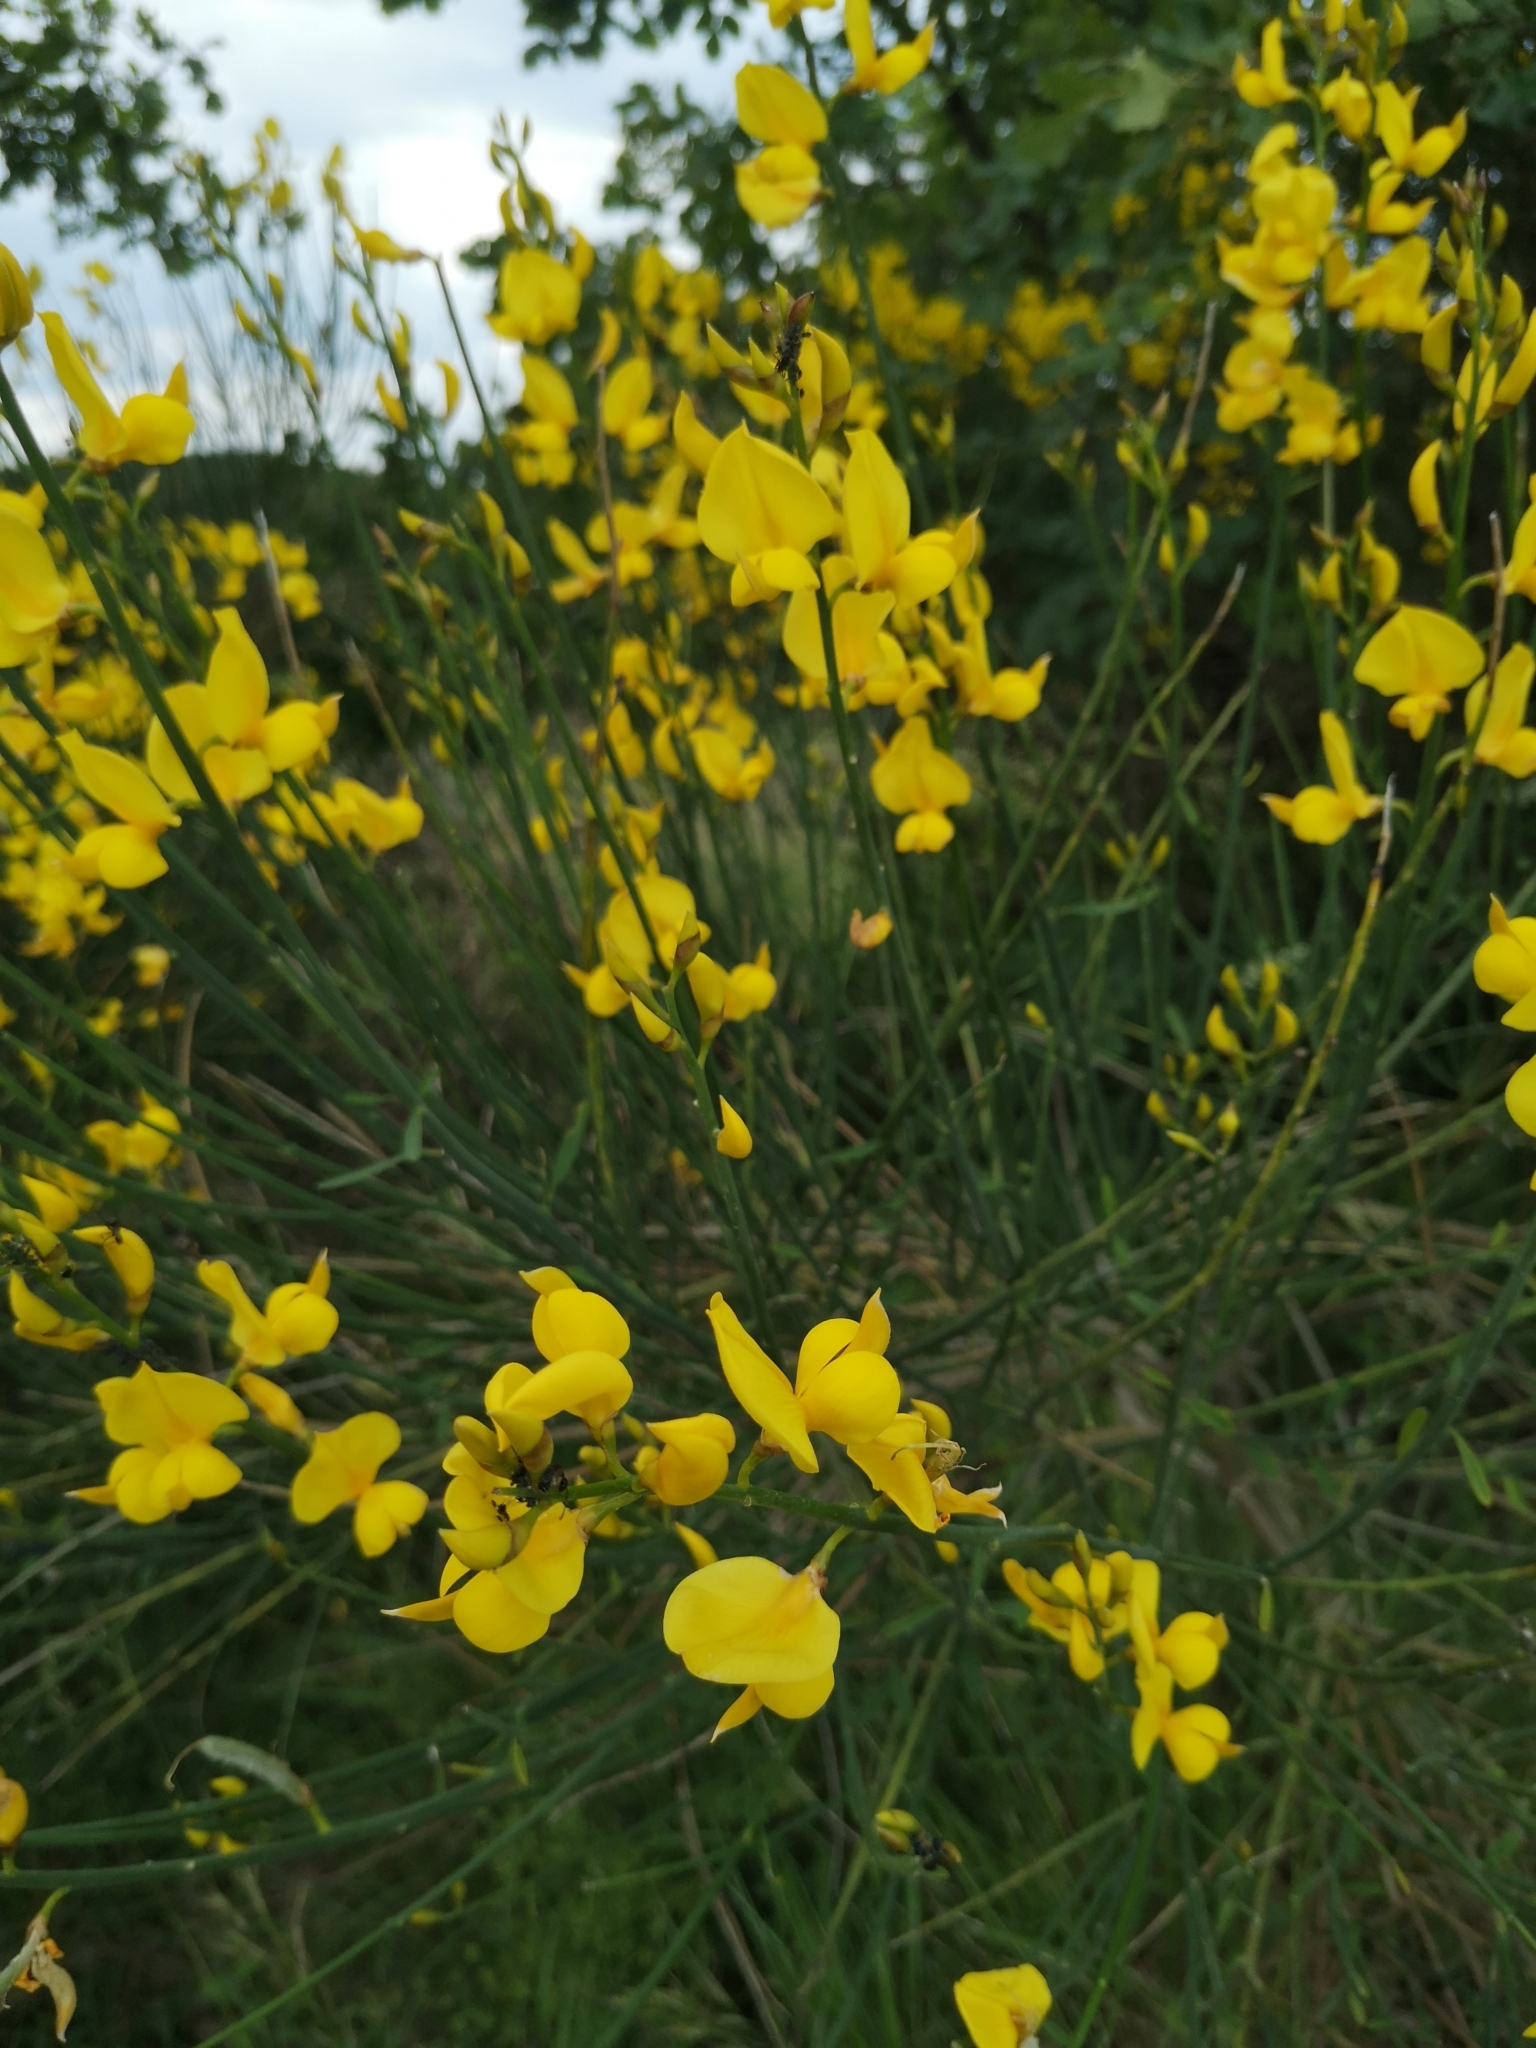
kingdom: Plantae
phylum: Tracheophyta
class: Magnoliopsida
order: Fabales
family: Fabaceae
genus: Spartium
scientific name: Spartium junceum
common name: Spanish broom
